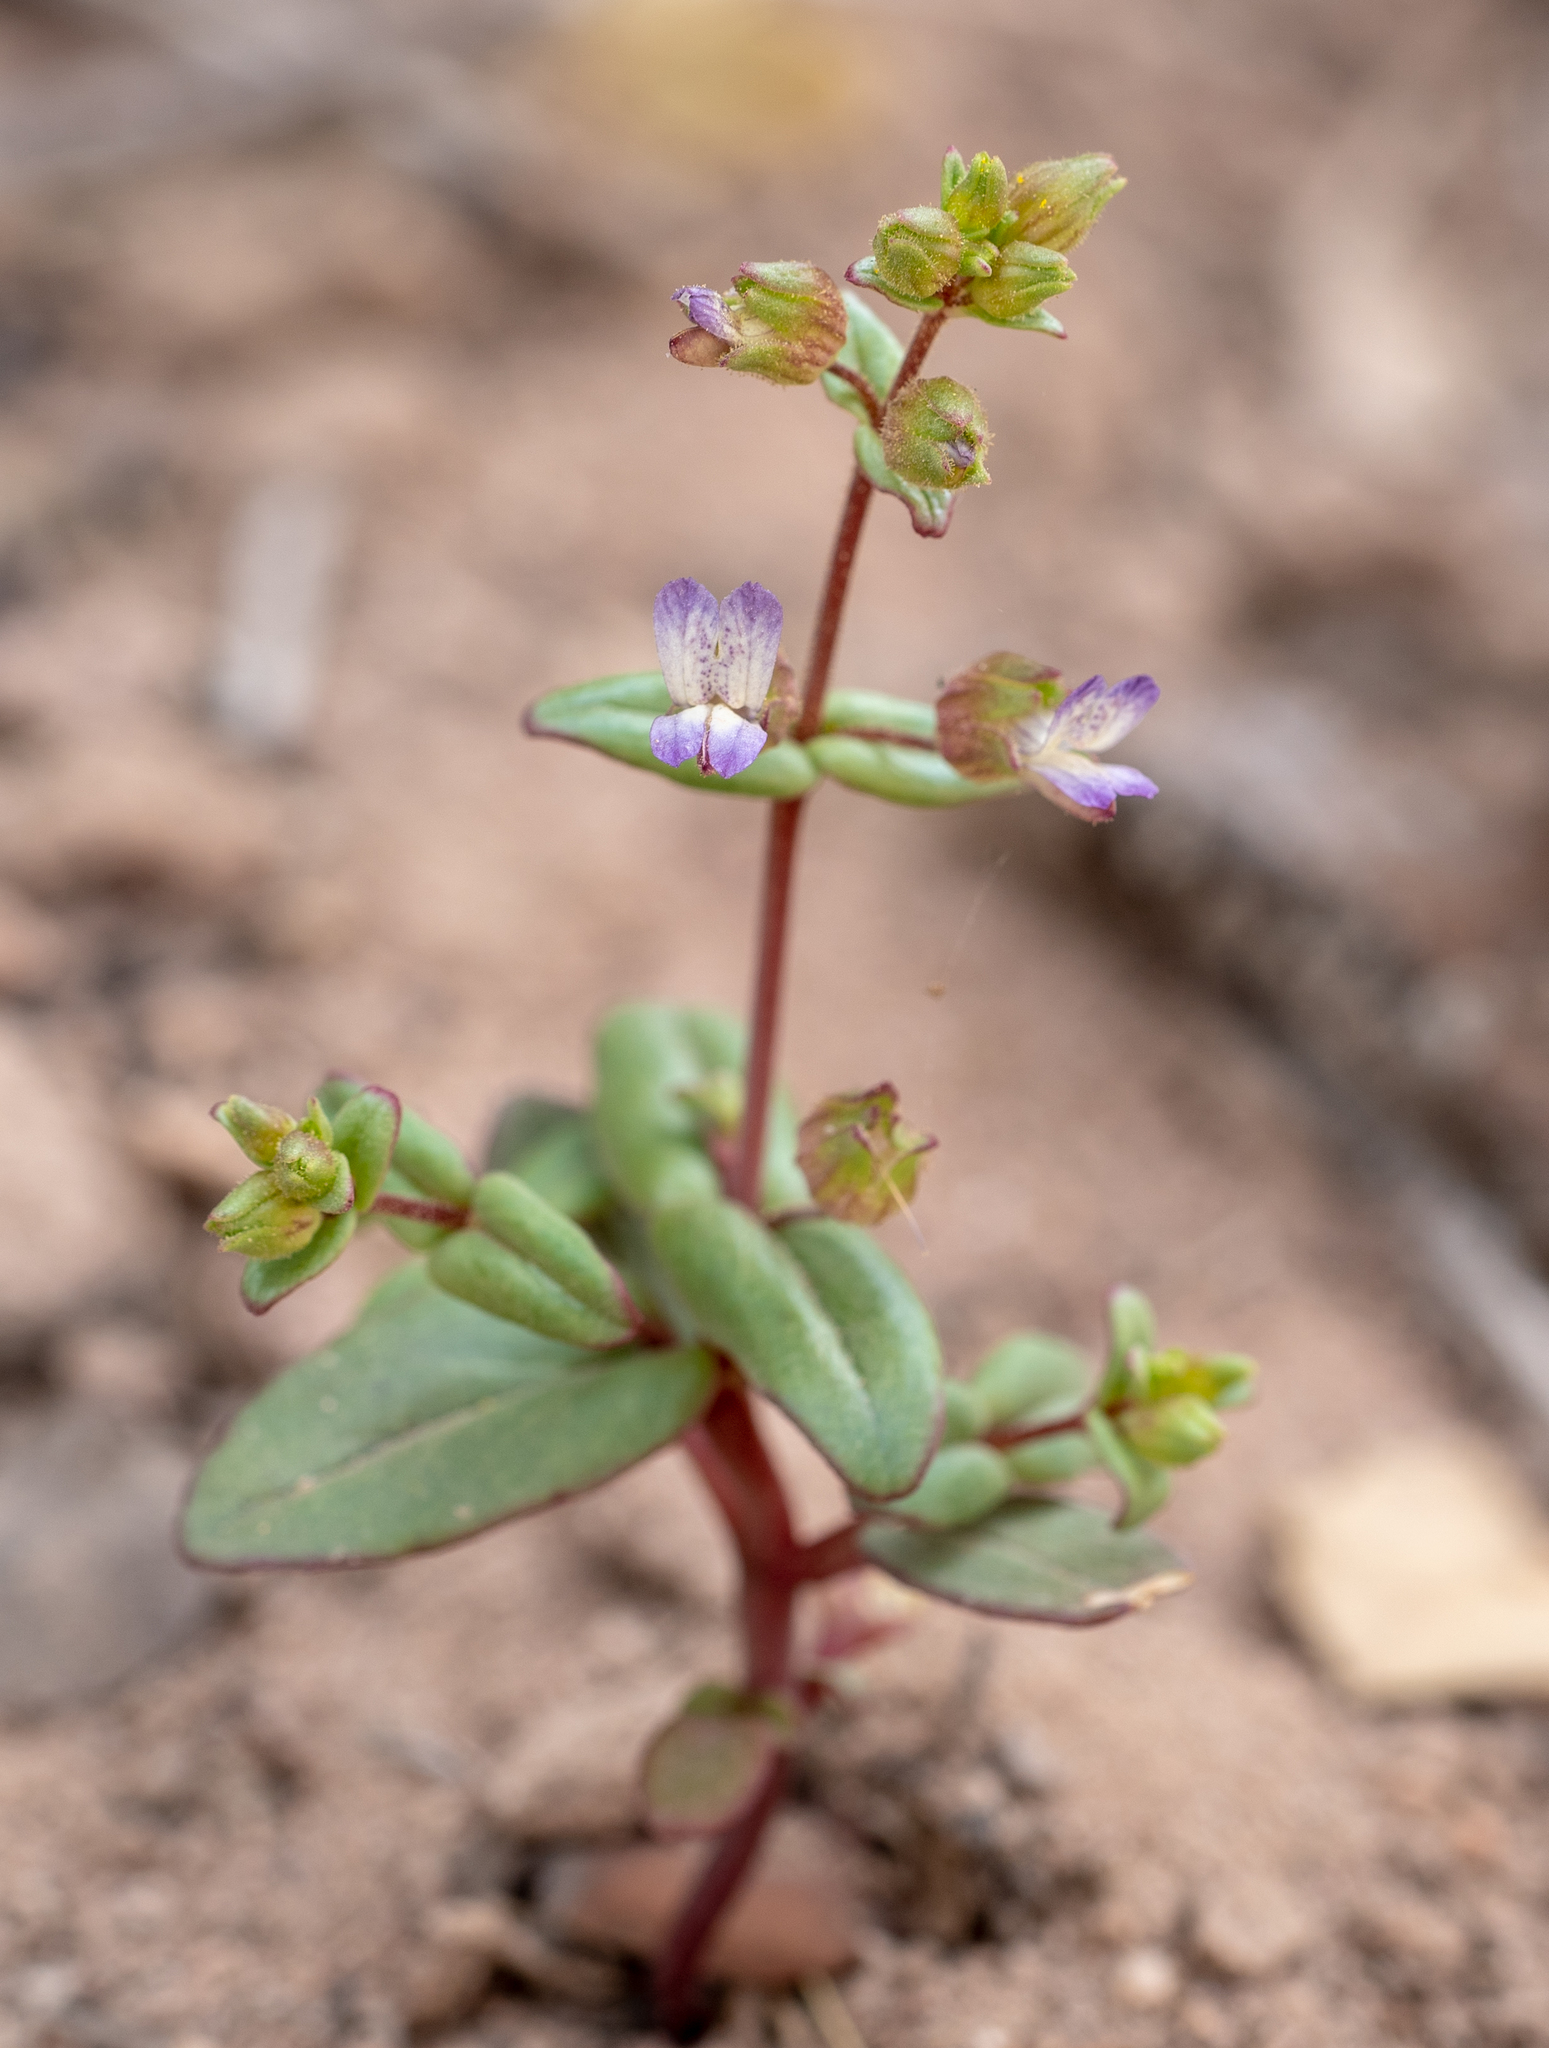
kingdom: Plantae
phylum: Tracheophyta
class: Magnoliopsida
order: Lamiales
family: Plantaginaceae
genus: Collinsia
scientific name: Collinsia callosa
